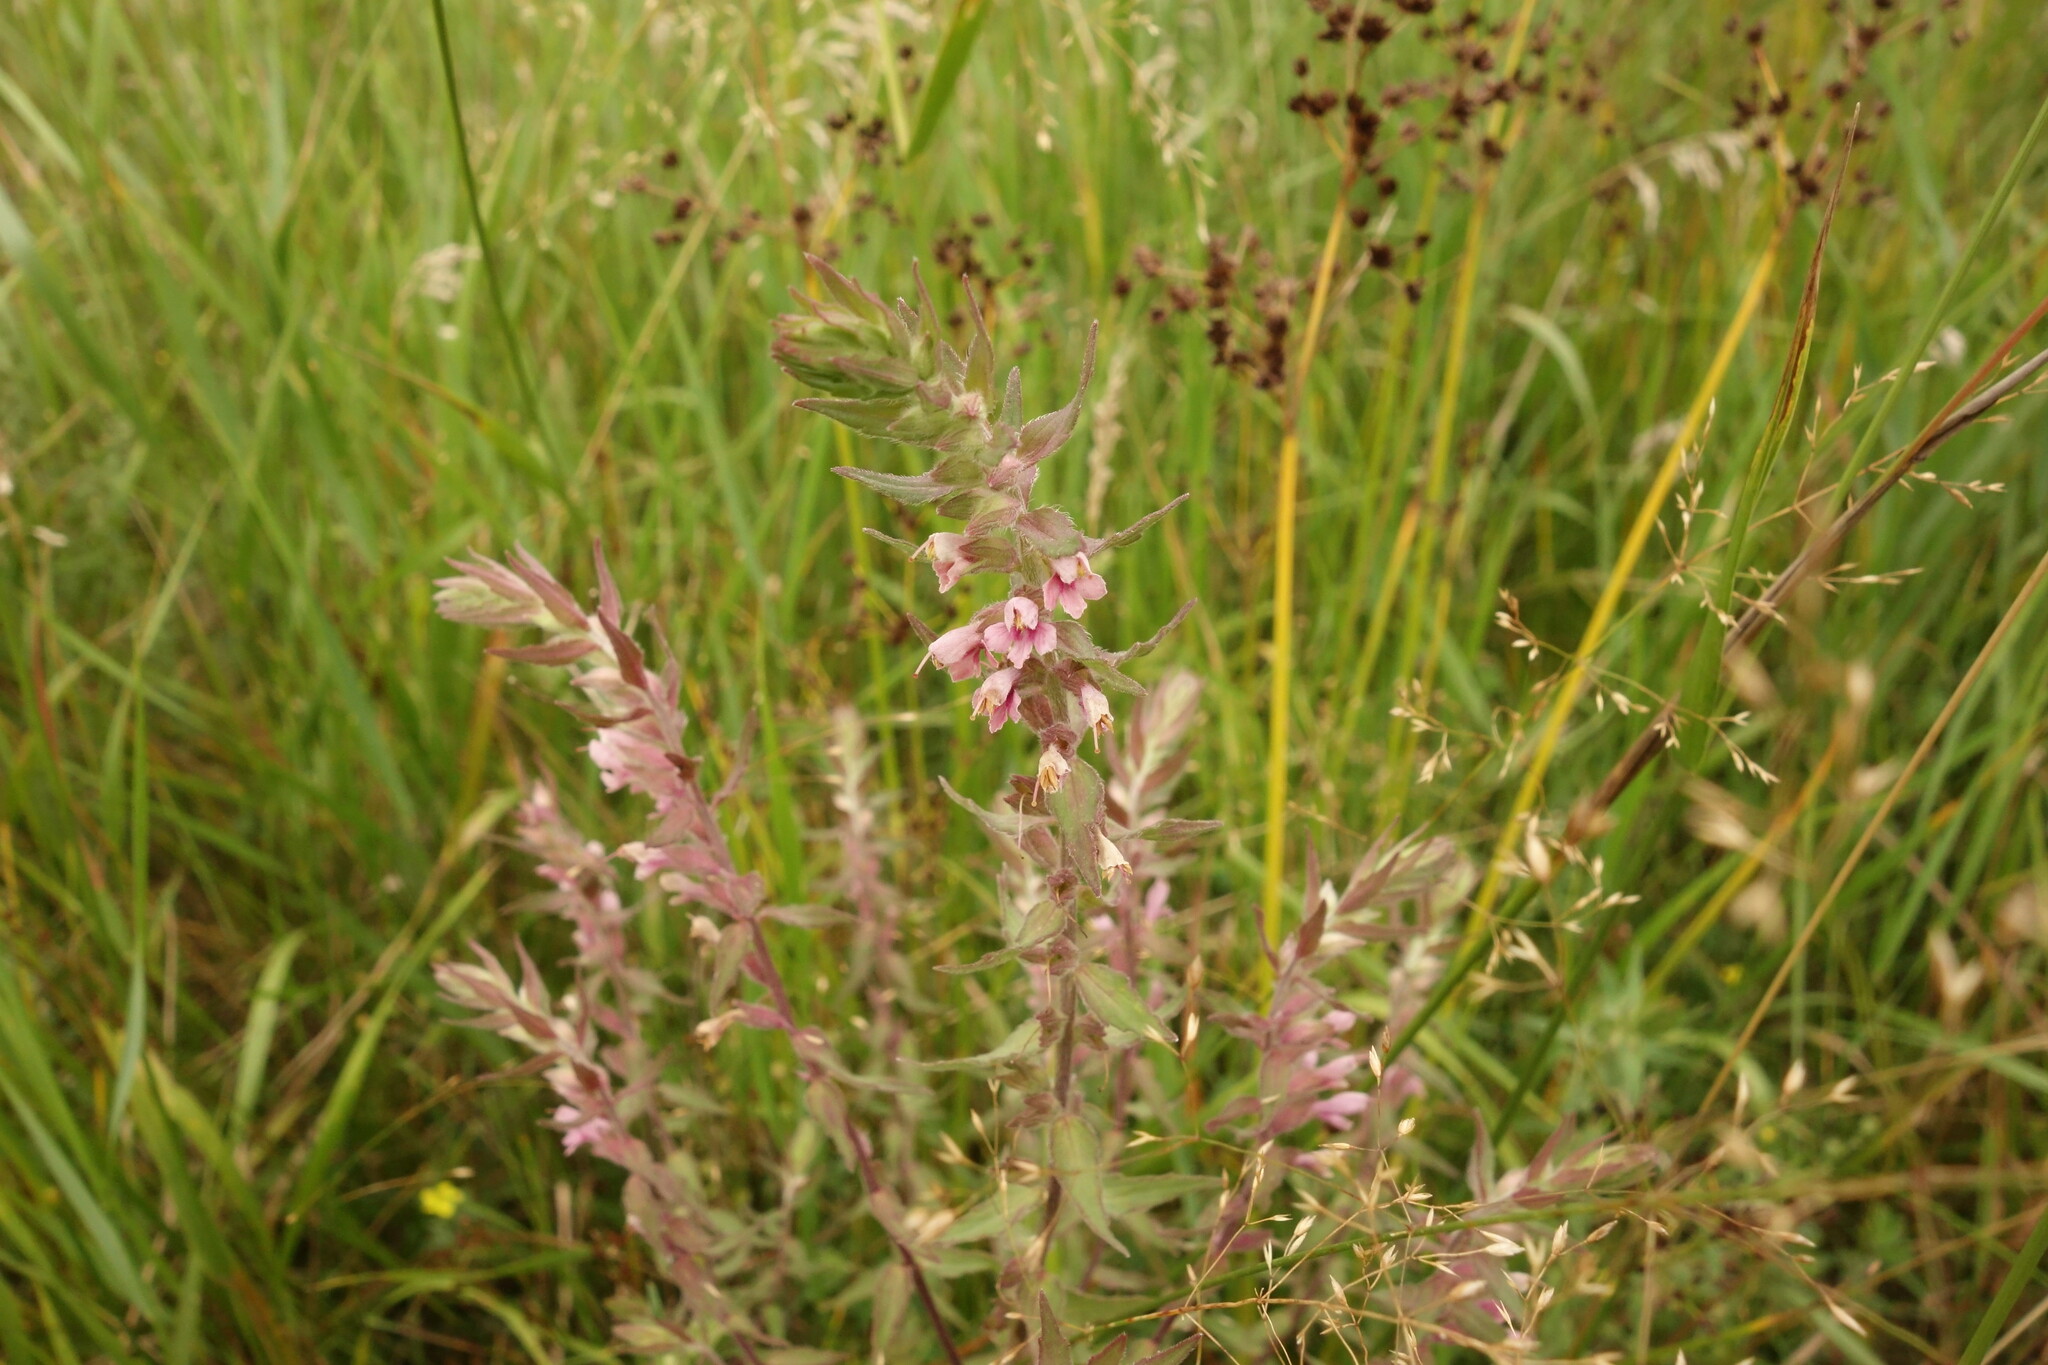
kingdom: Plantae
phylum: Tracheophyta
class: Magnoliopsida
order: Lamiales
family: Orobanchaceae
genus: Odontites
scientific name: Odontites vulgaris
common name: Broomrape
